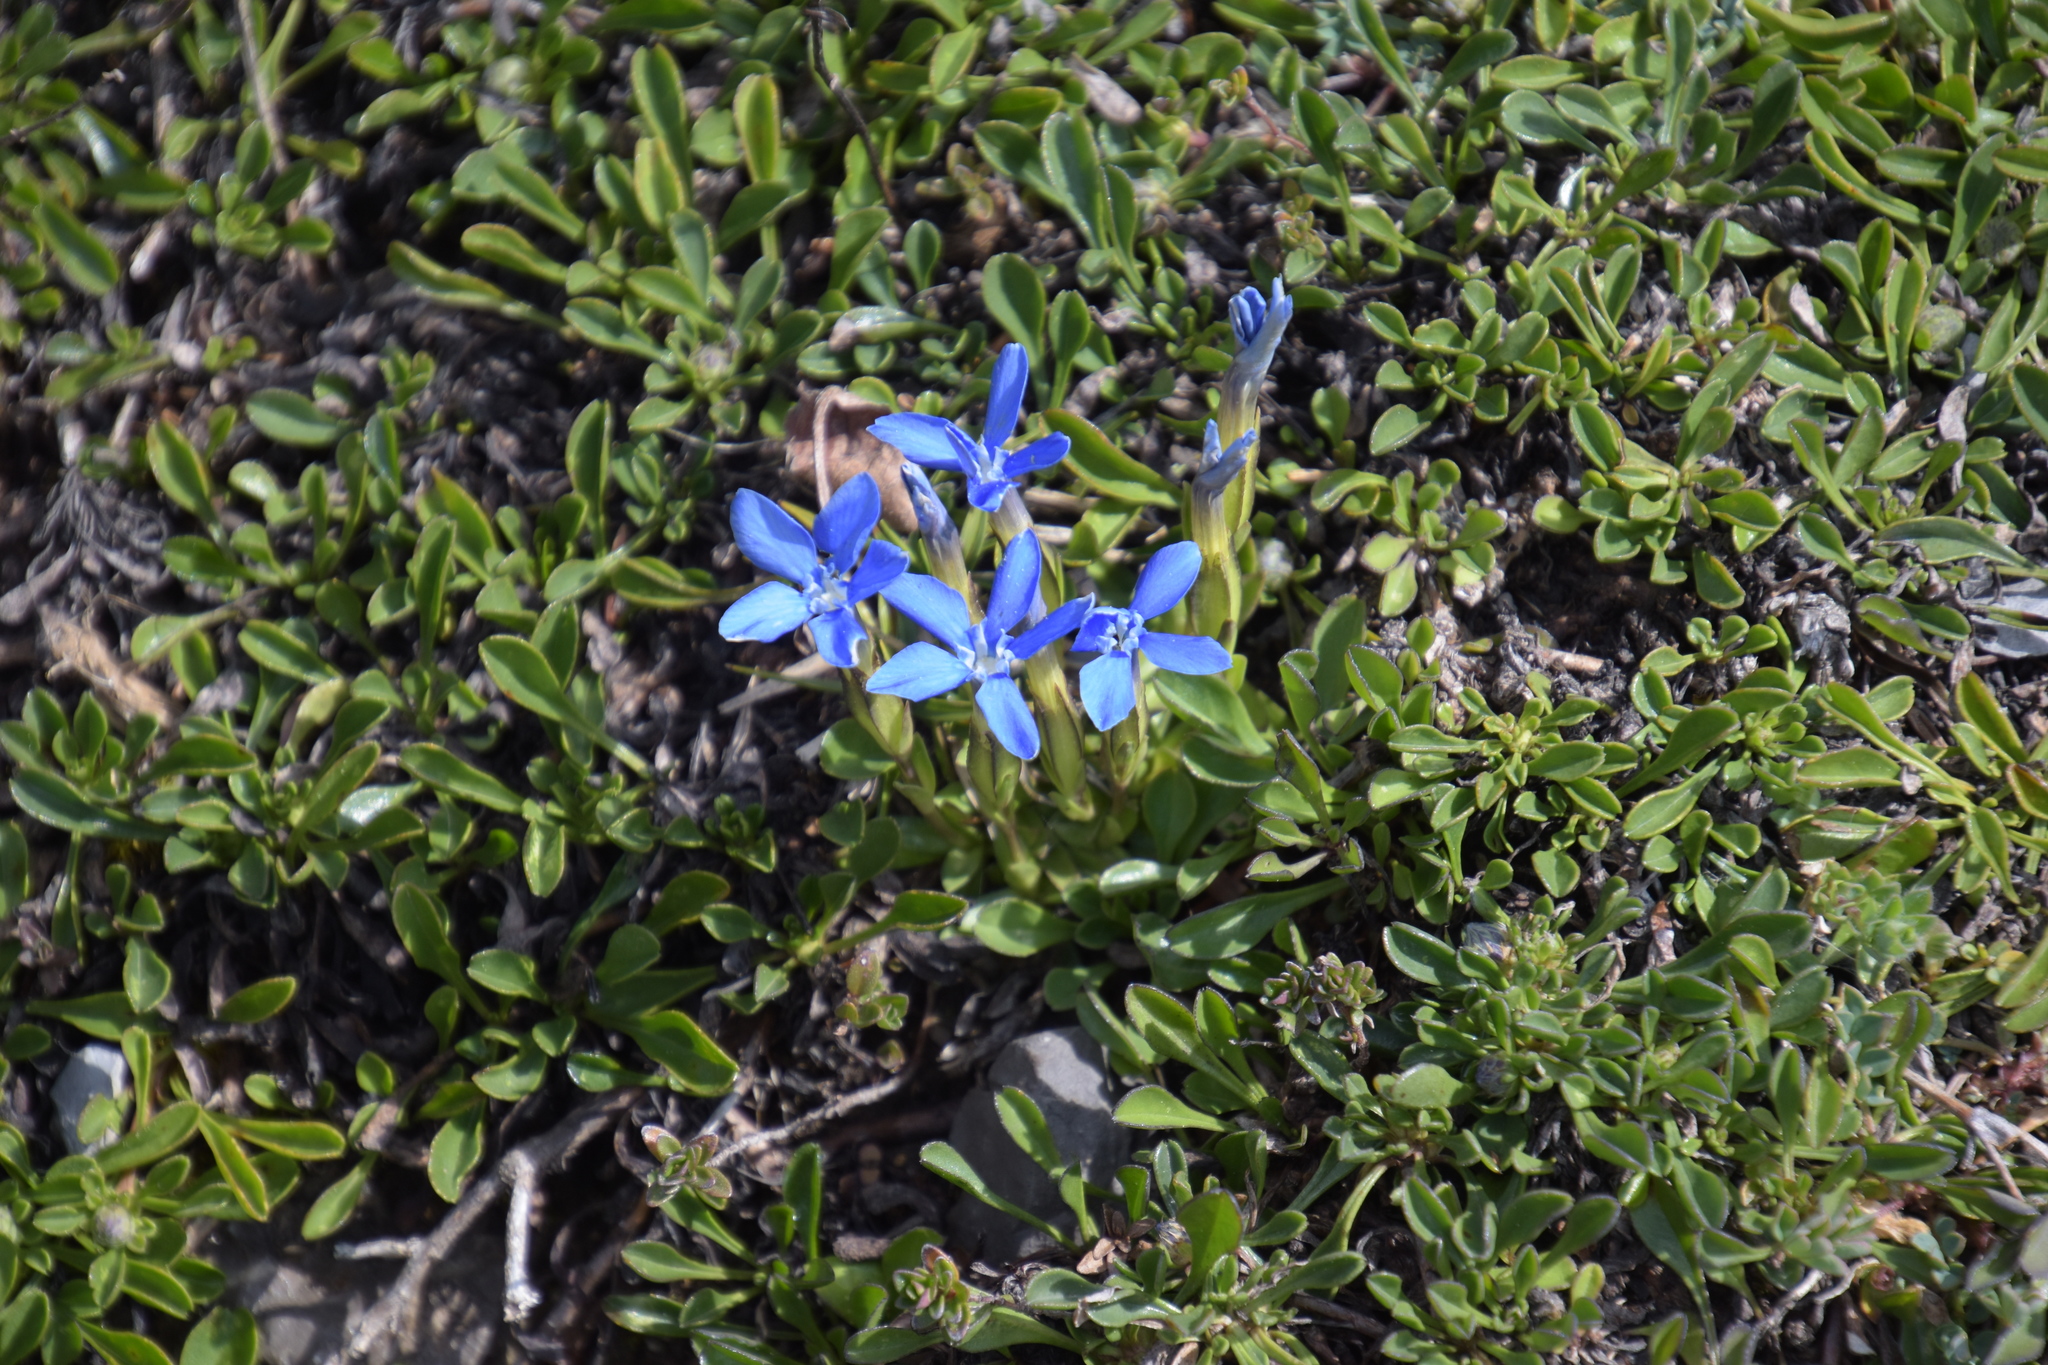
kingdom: Plantae
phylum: Tracheophyta
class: Magnoliopsida
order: Gentianales
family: Gentianaceae
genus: Gentiana
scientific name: Gentiana verna
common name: Spring gentian
